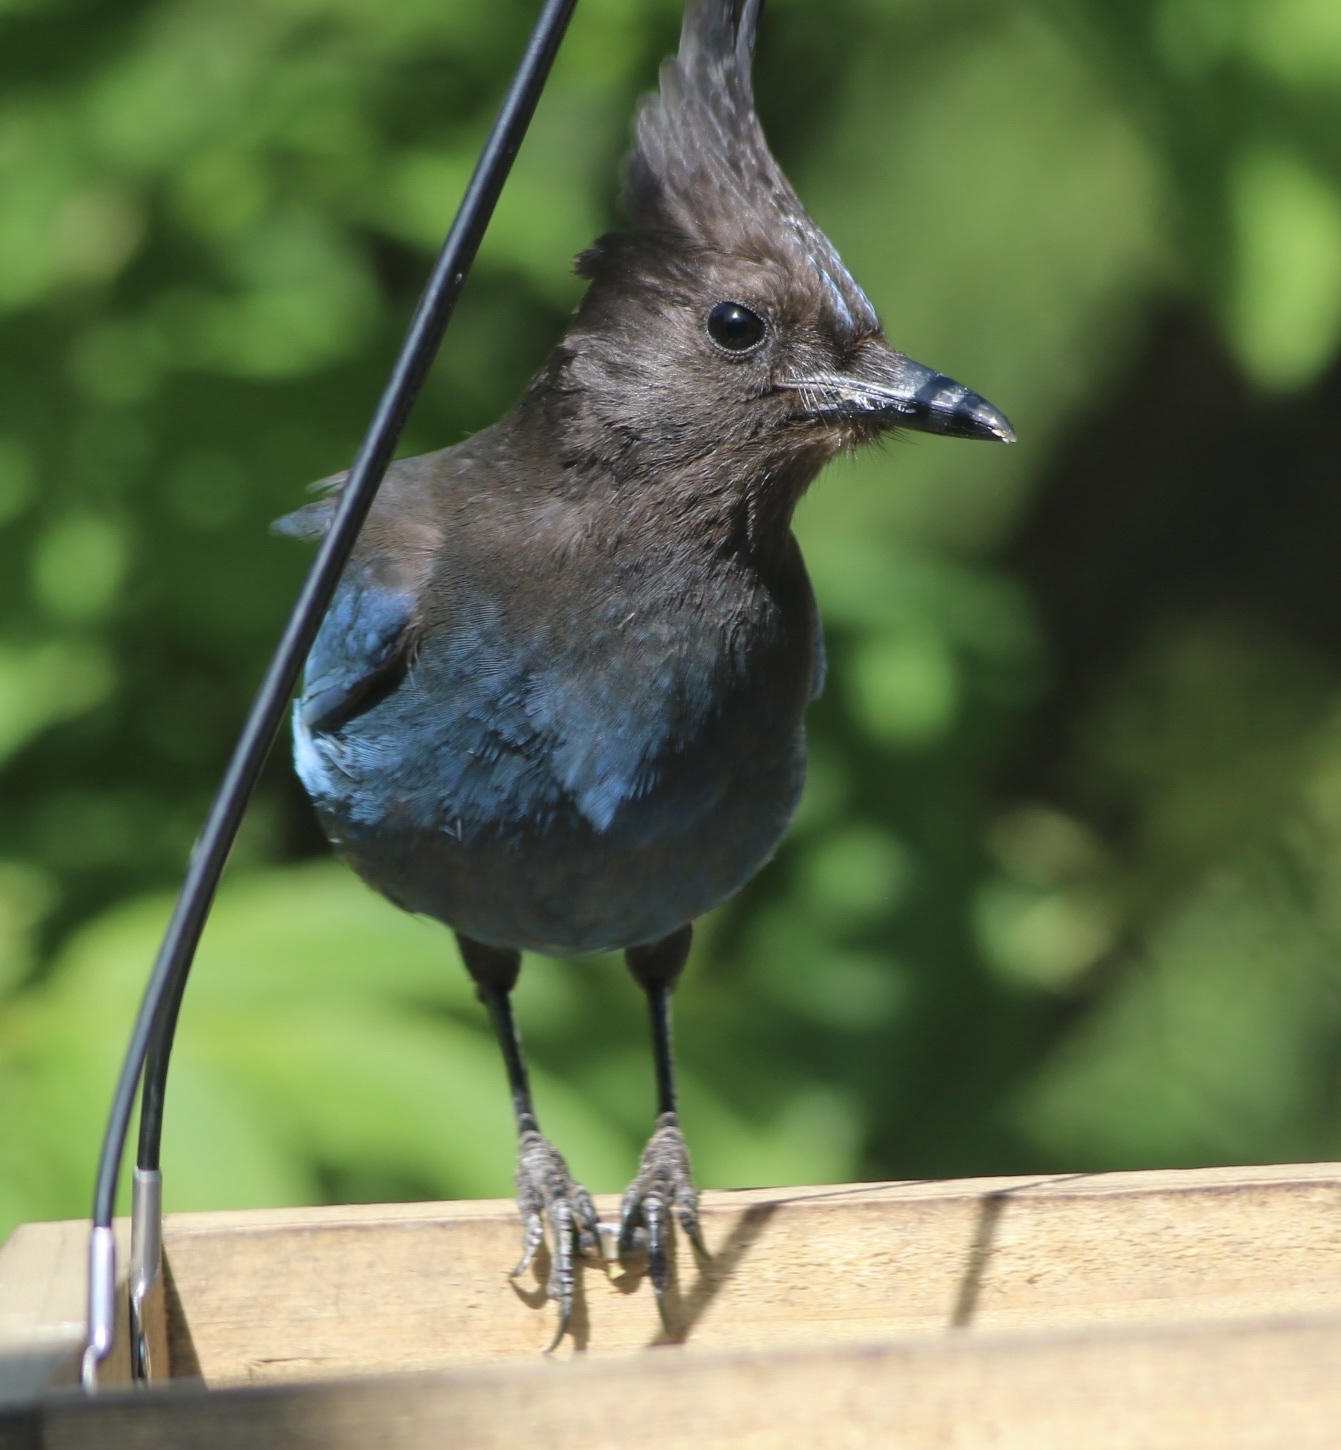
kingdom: Animalia
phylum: Chordata
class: Aves
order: Passeriformes
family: Corvidae
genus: Cyanocitta
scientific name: Cyanocitta stelleri
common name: Steller's jay
